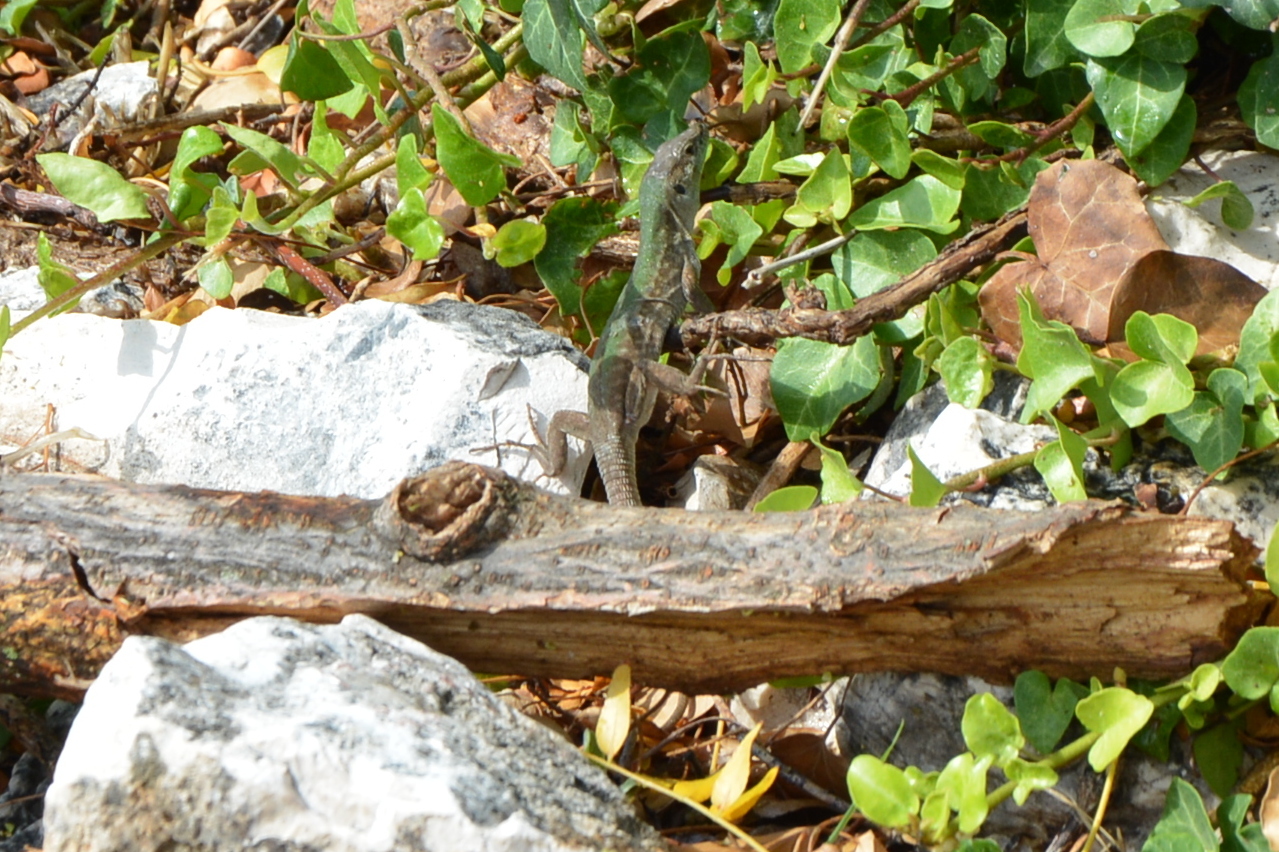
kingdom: Animalia
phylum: Chordata
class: Squamata
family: Lacertidae
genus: Podarcis
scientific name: Podarcis siculus
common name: Italian wall lizard
